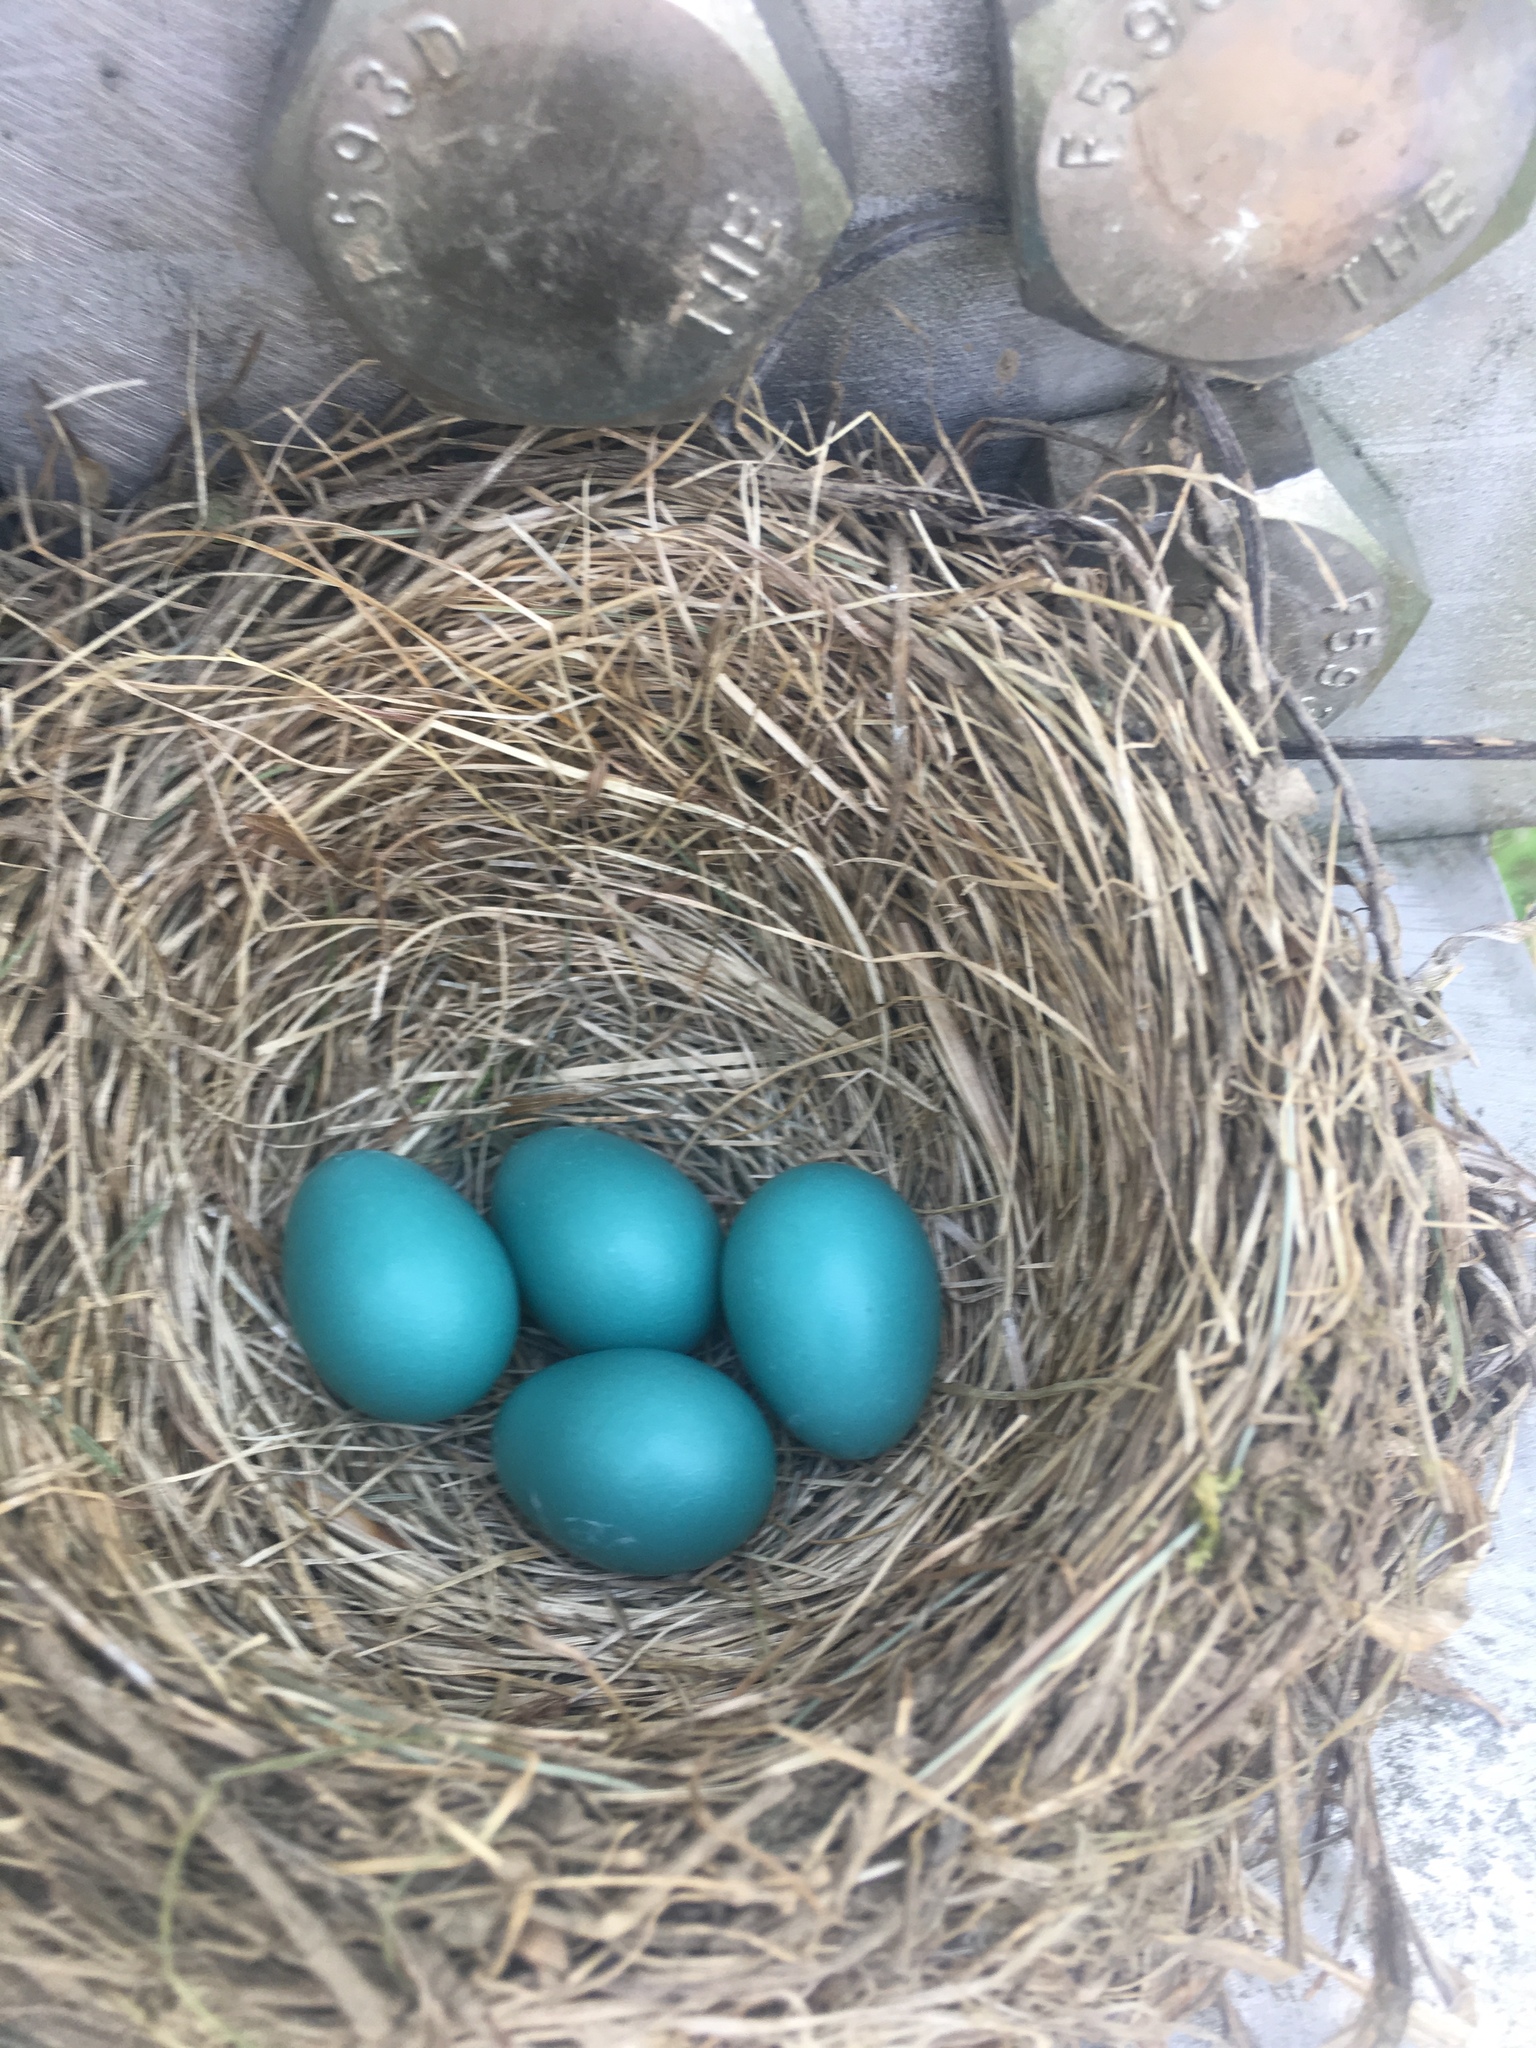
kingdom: Animalia
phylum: Chordata
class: Aves
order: Passeriformes
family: Turdidae
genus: Turdus
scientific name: Turdus migratorius
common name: American robin
